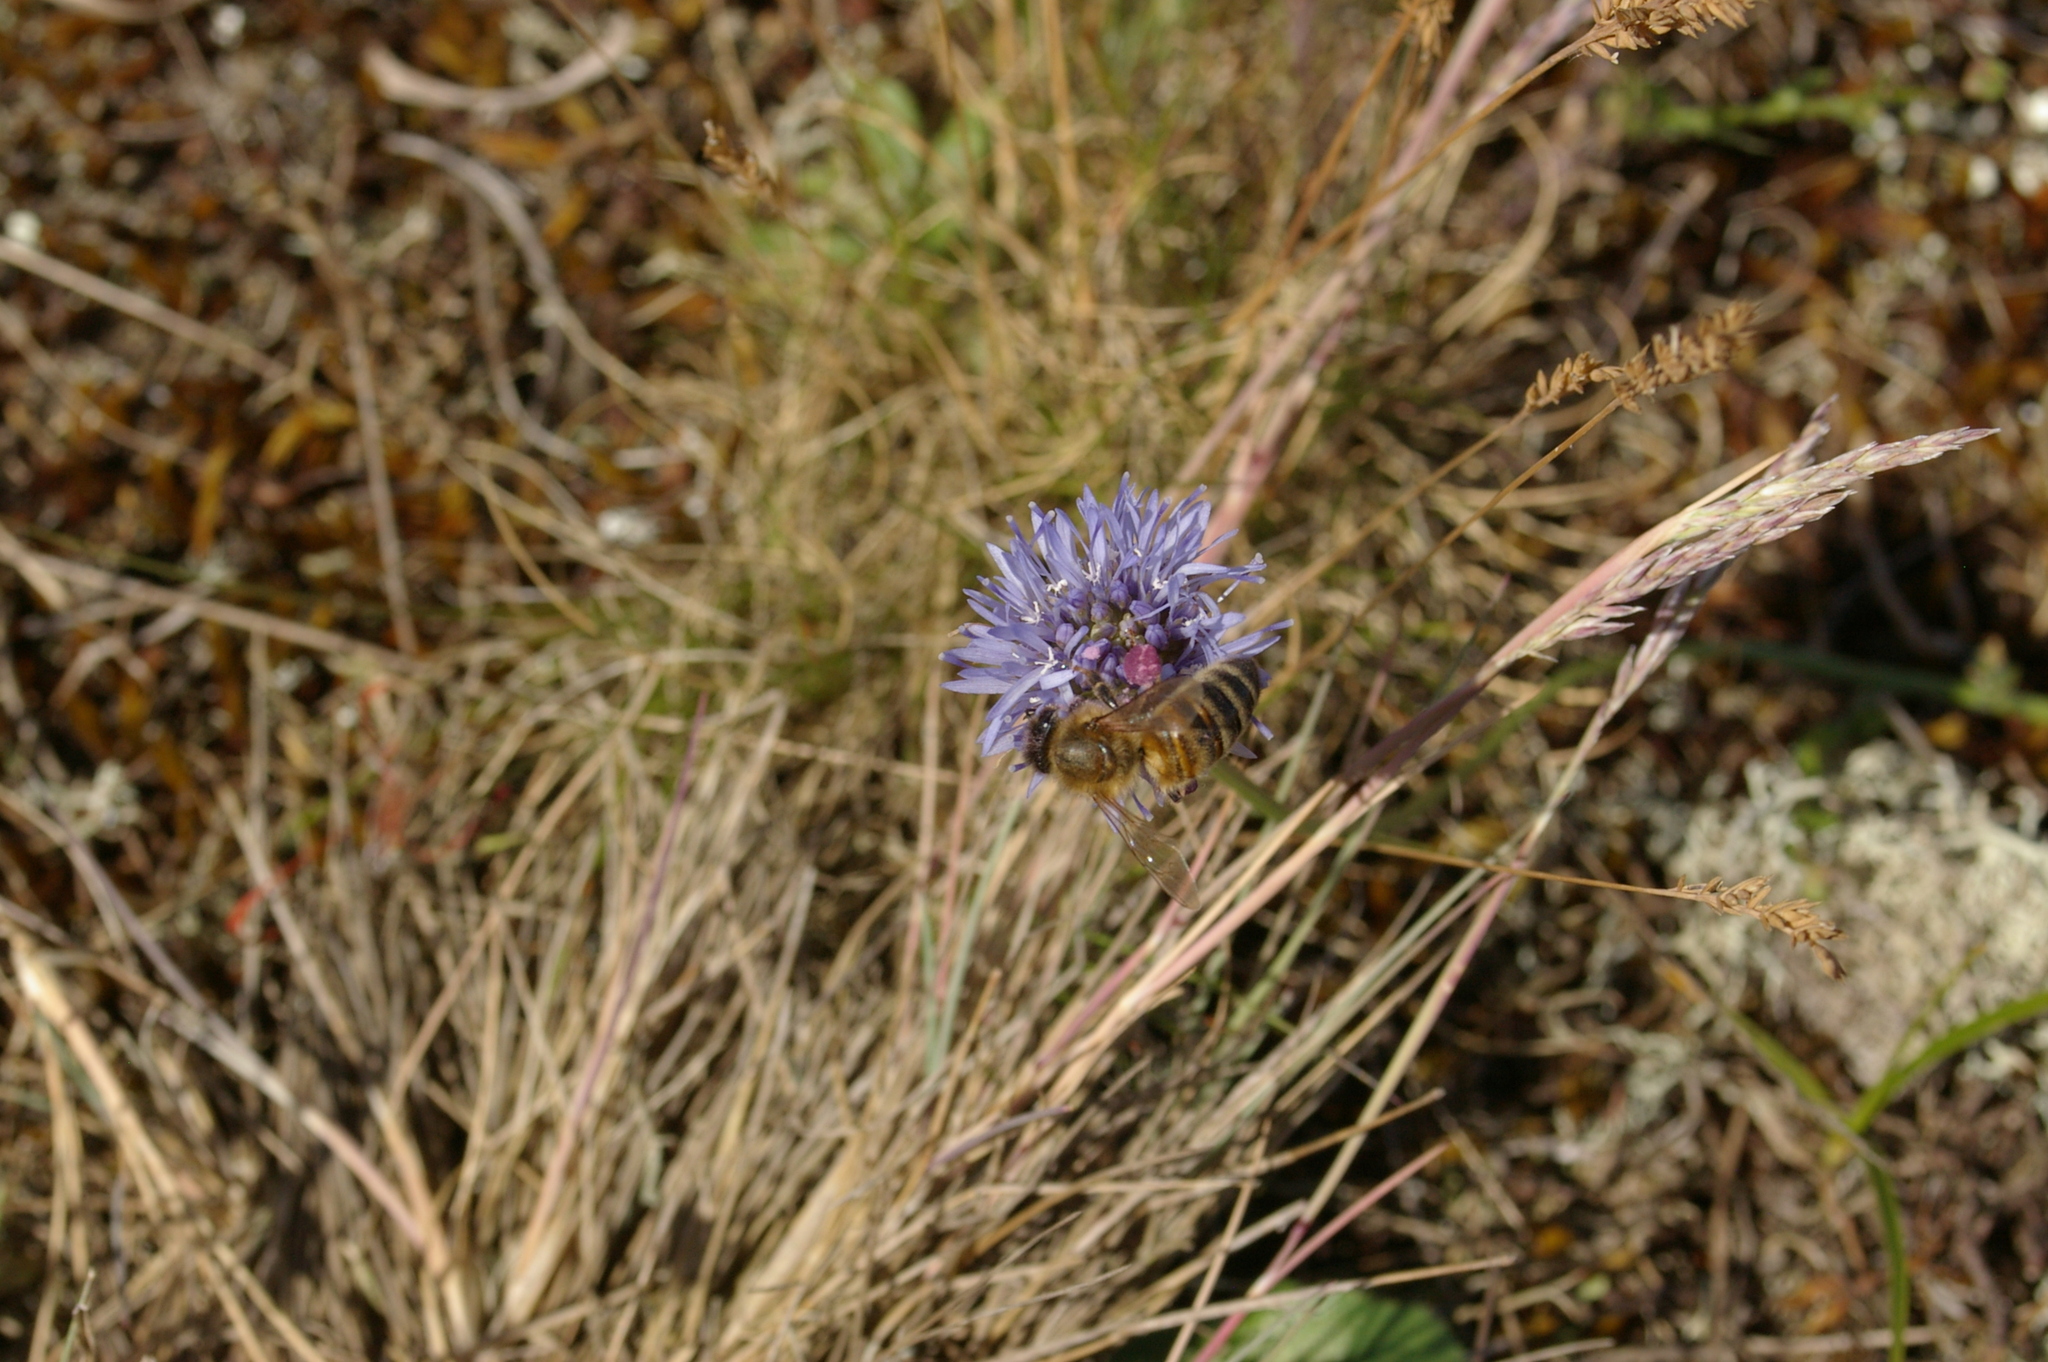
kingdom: Animalia
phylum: Arthropoda
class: Insecta
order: Hymenoptera
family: Apidae
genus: Apis
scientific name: Apis mellifera
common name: Honey bee
